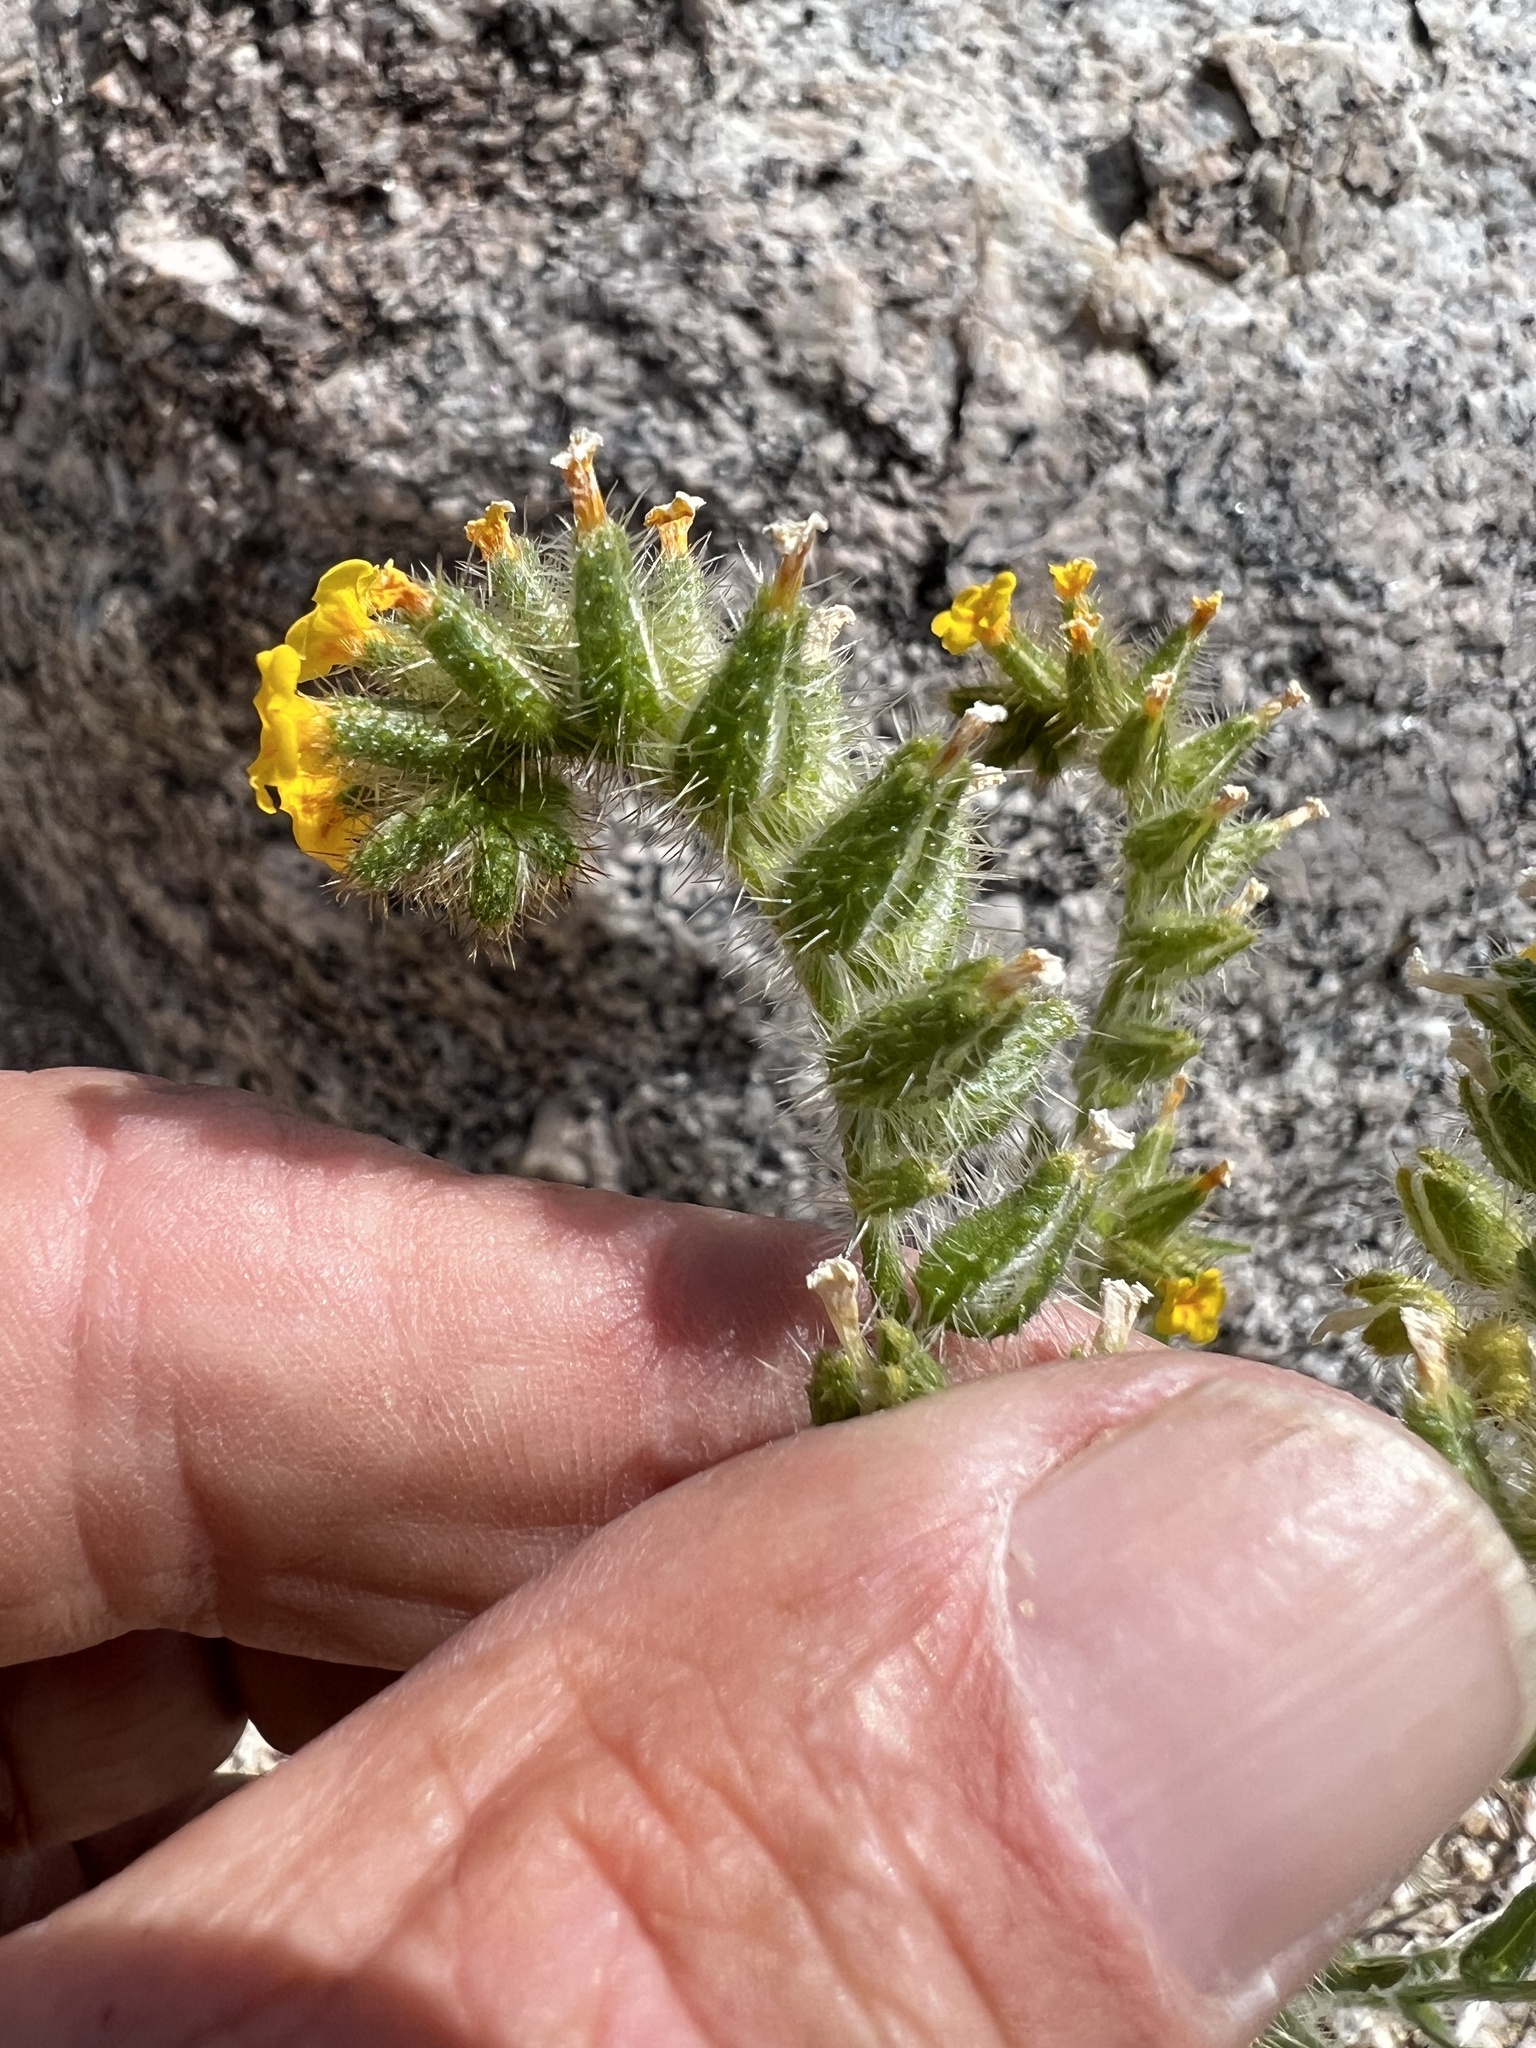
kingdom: Plantae
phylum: Tracheophyta
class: Magnoliopsida
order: Boraginales
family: Boraginaceae
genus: Amsinckia
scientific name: Amsinckia tessellata
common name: Tessellate fiddleneck
